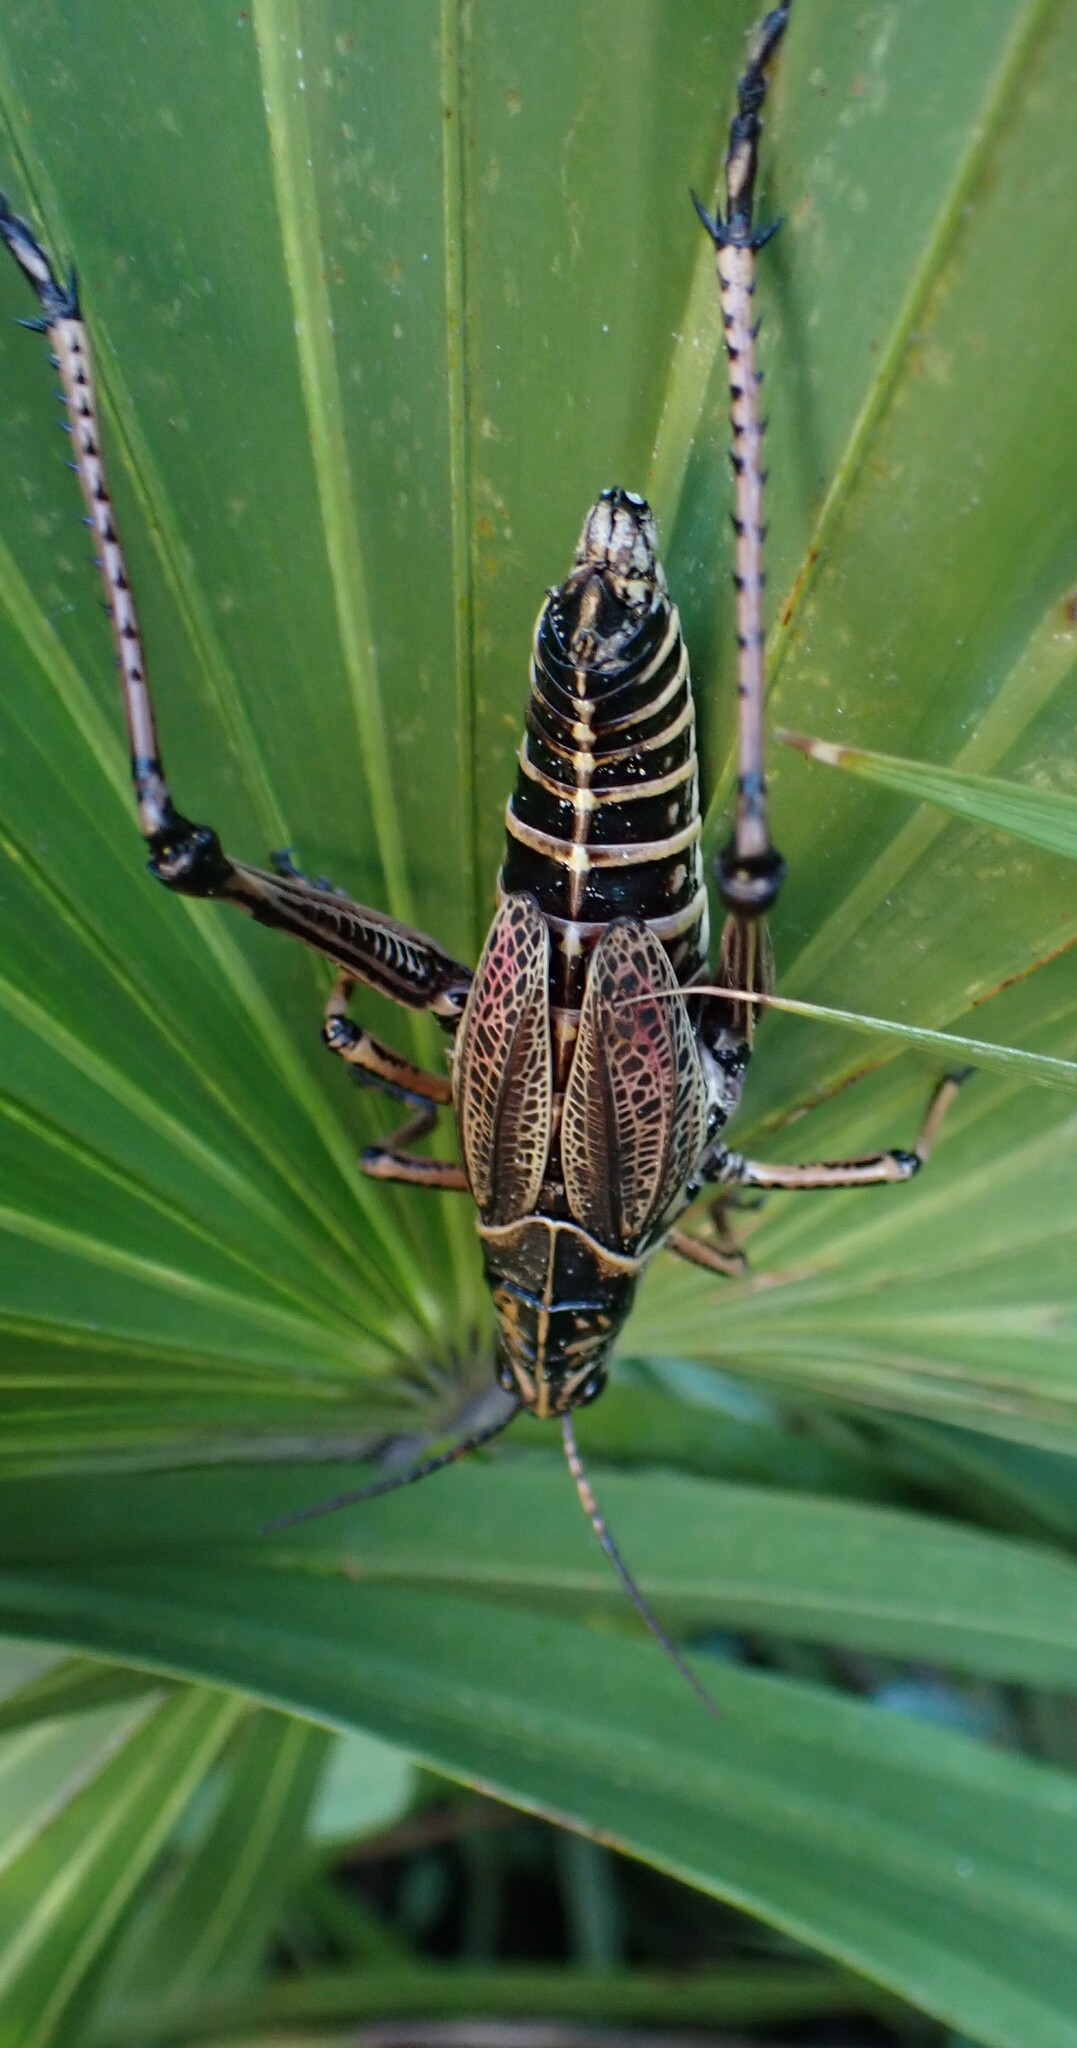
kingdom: Animalia
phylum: Arthropoda
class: Insecta
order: Orthoptera
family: Romaleidae
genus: Romalea
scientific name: Romalea microptera
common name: Eastern lubber grasshopper
